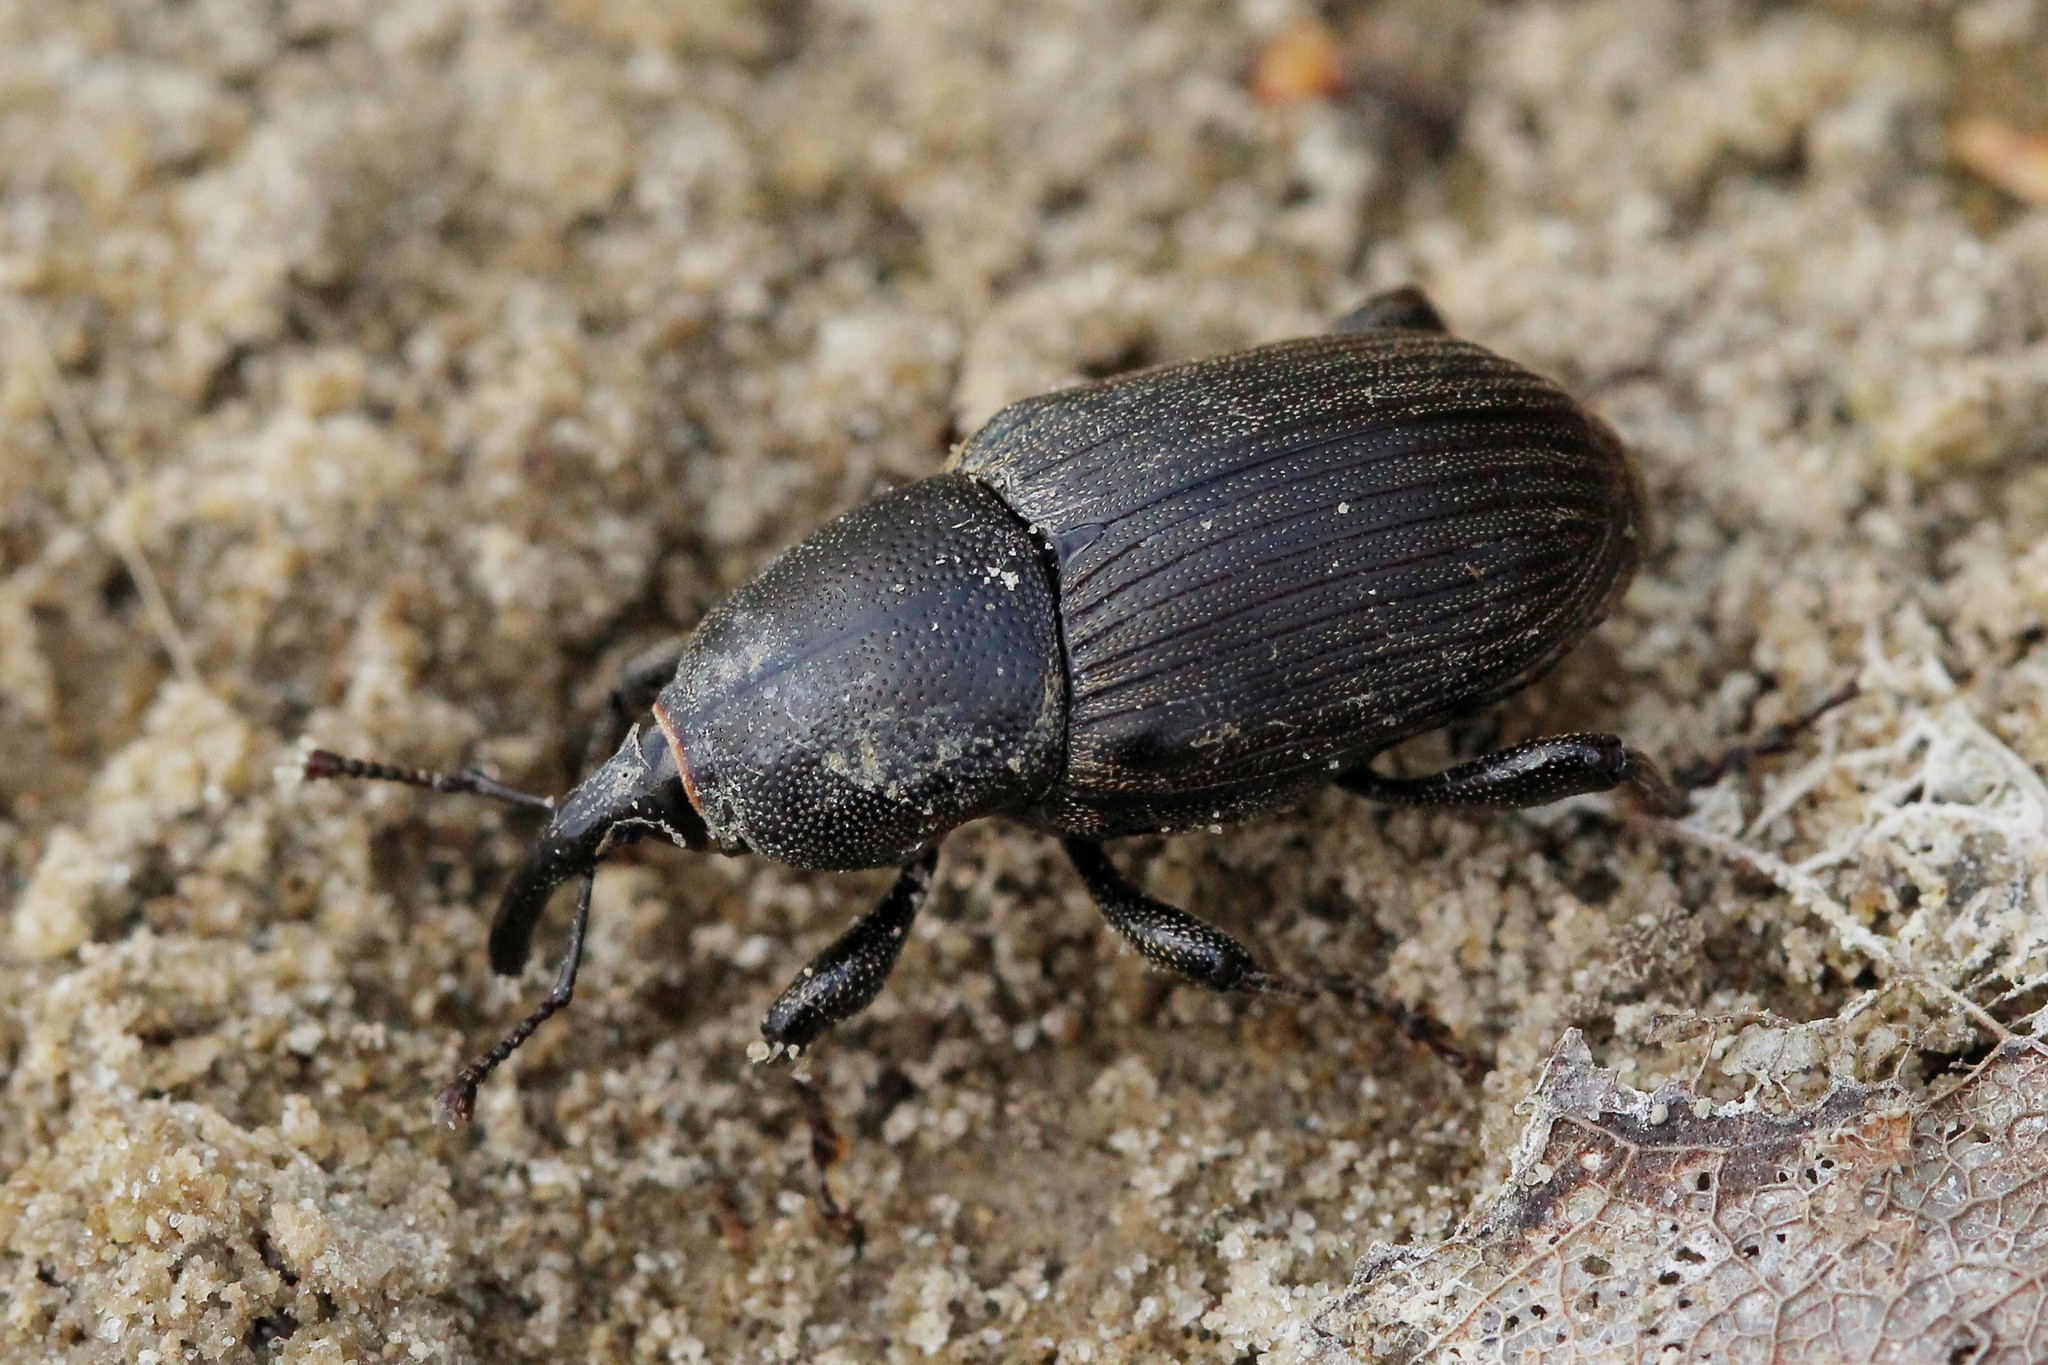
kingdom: Animalia
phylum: Arthropoda
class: Insecta
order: Coleoptera
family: Dryophthoridae
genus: Sphenophorus
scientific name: Sphenophorus striatopunctatus
